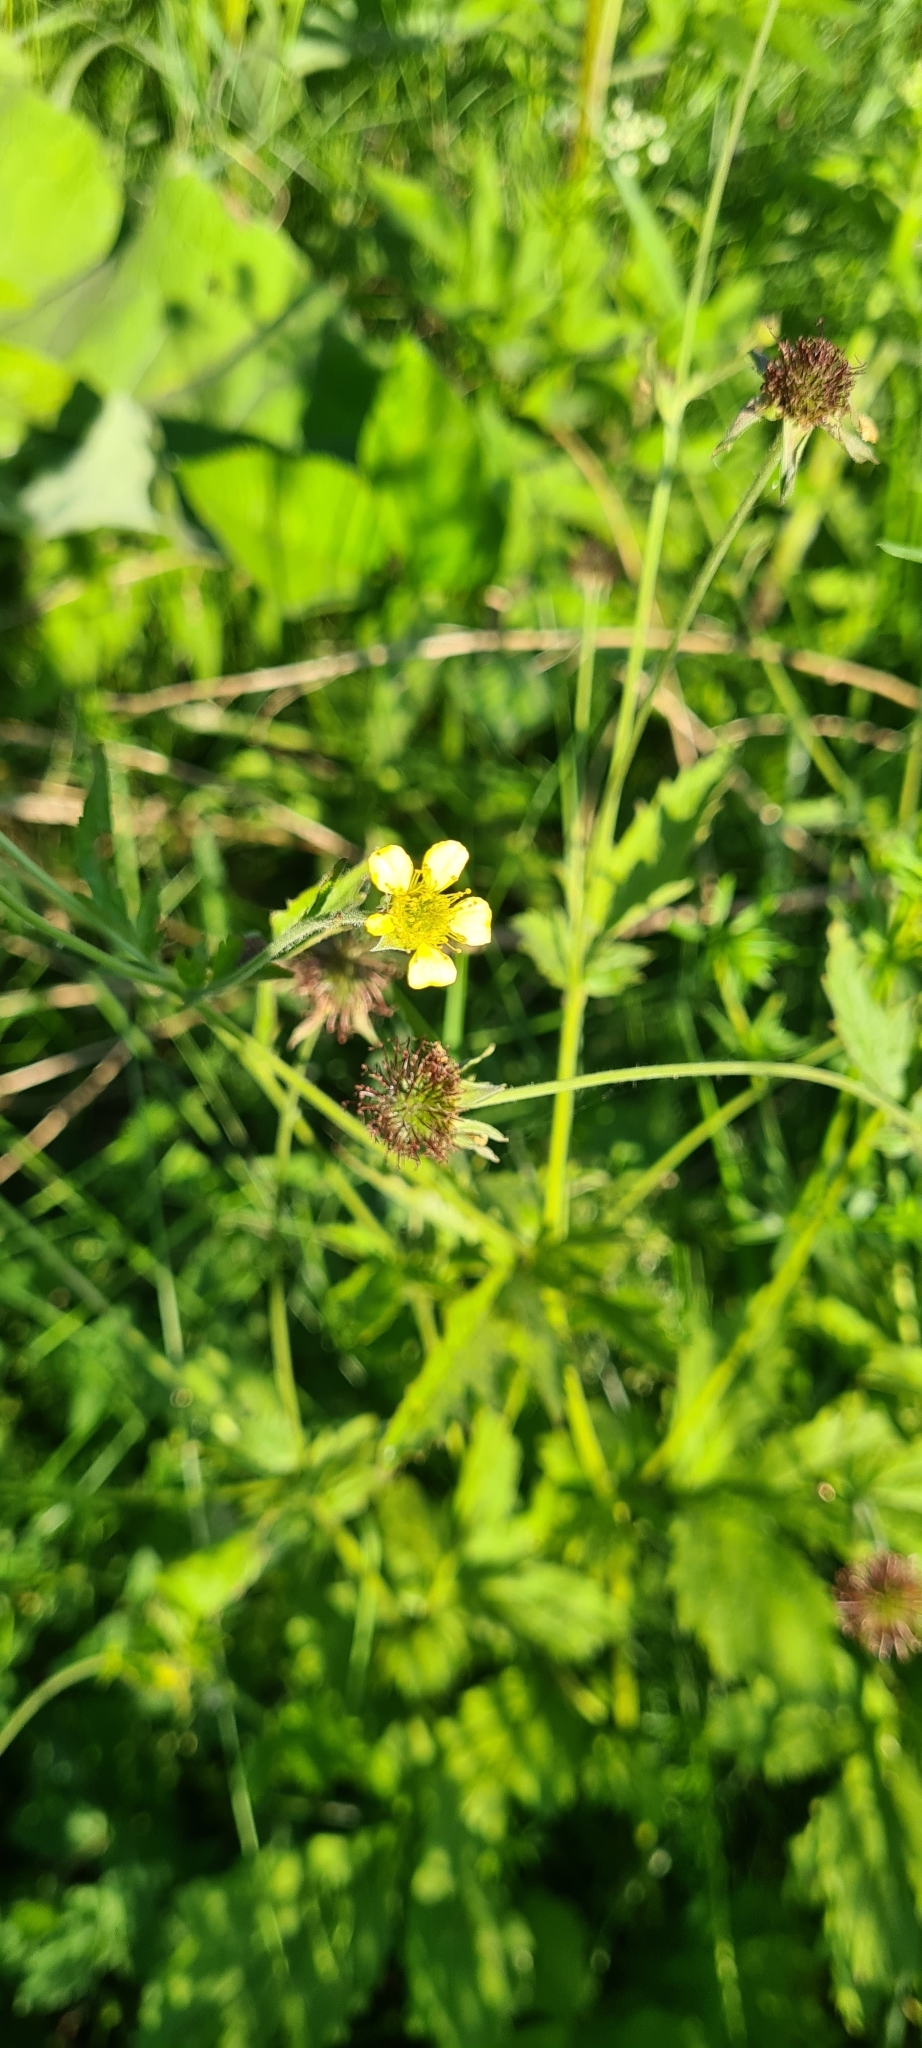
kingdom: Plantae
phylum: Tracheophyta
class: Magnoliopsida
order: Rosales
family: Rosaceae
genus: Geum
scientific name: Geum urbanum
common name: Wood avens
